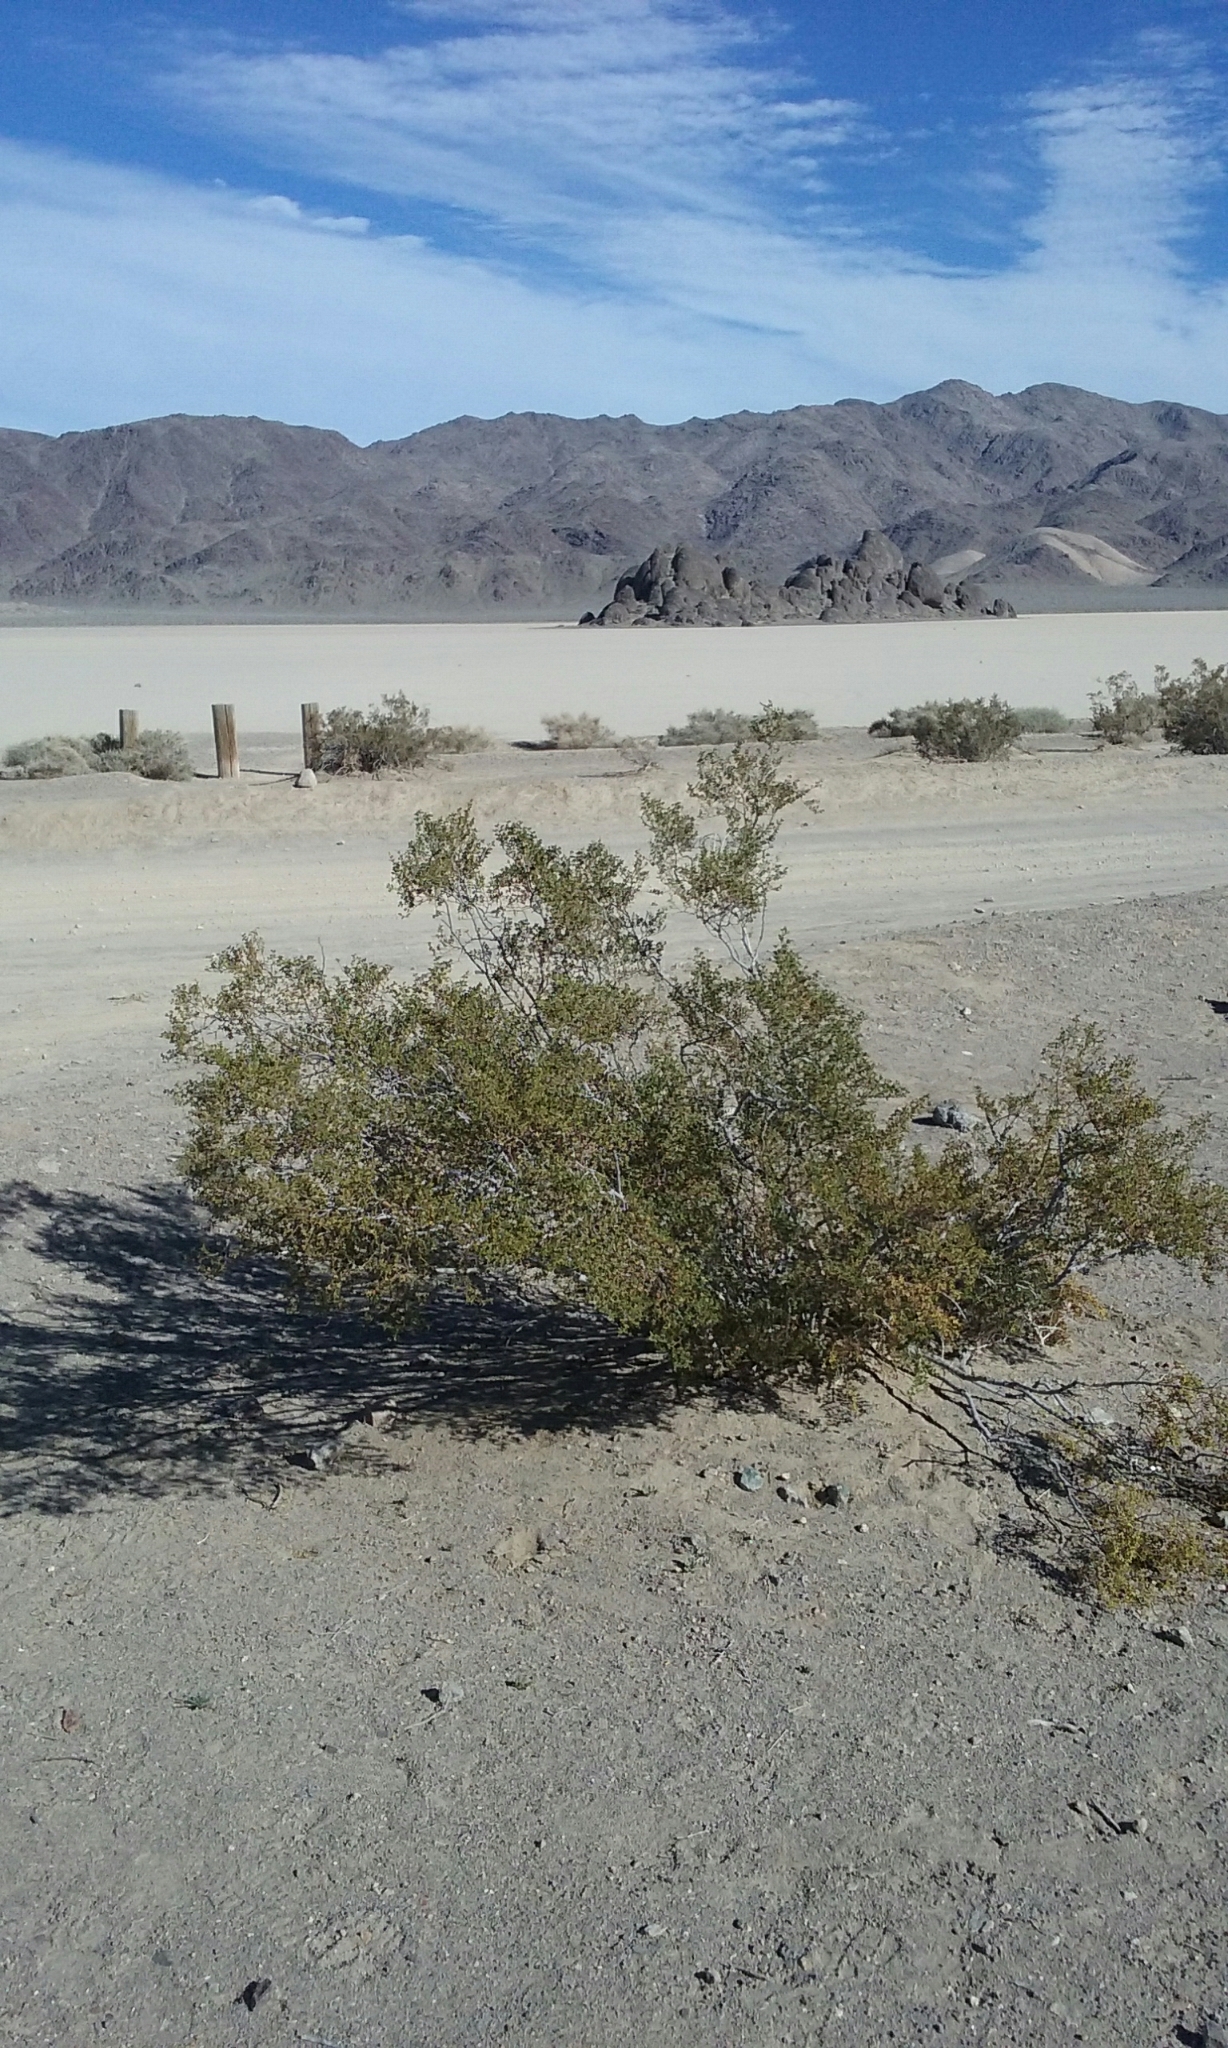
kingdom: Plantae
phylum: Tracheophyta
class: Magnoliopsida
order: Zygophyllales
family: Zygophyllaceae
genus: Larrea
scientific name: Larrea tridentata
